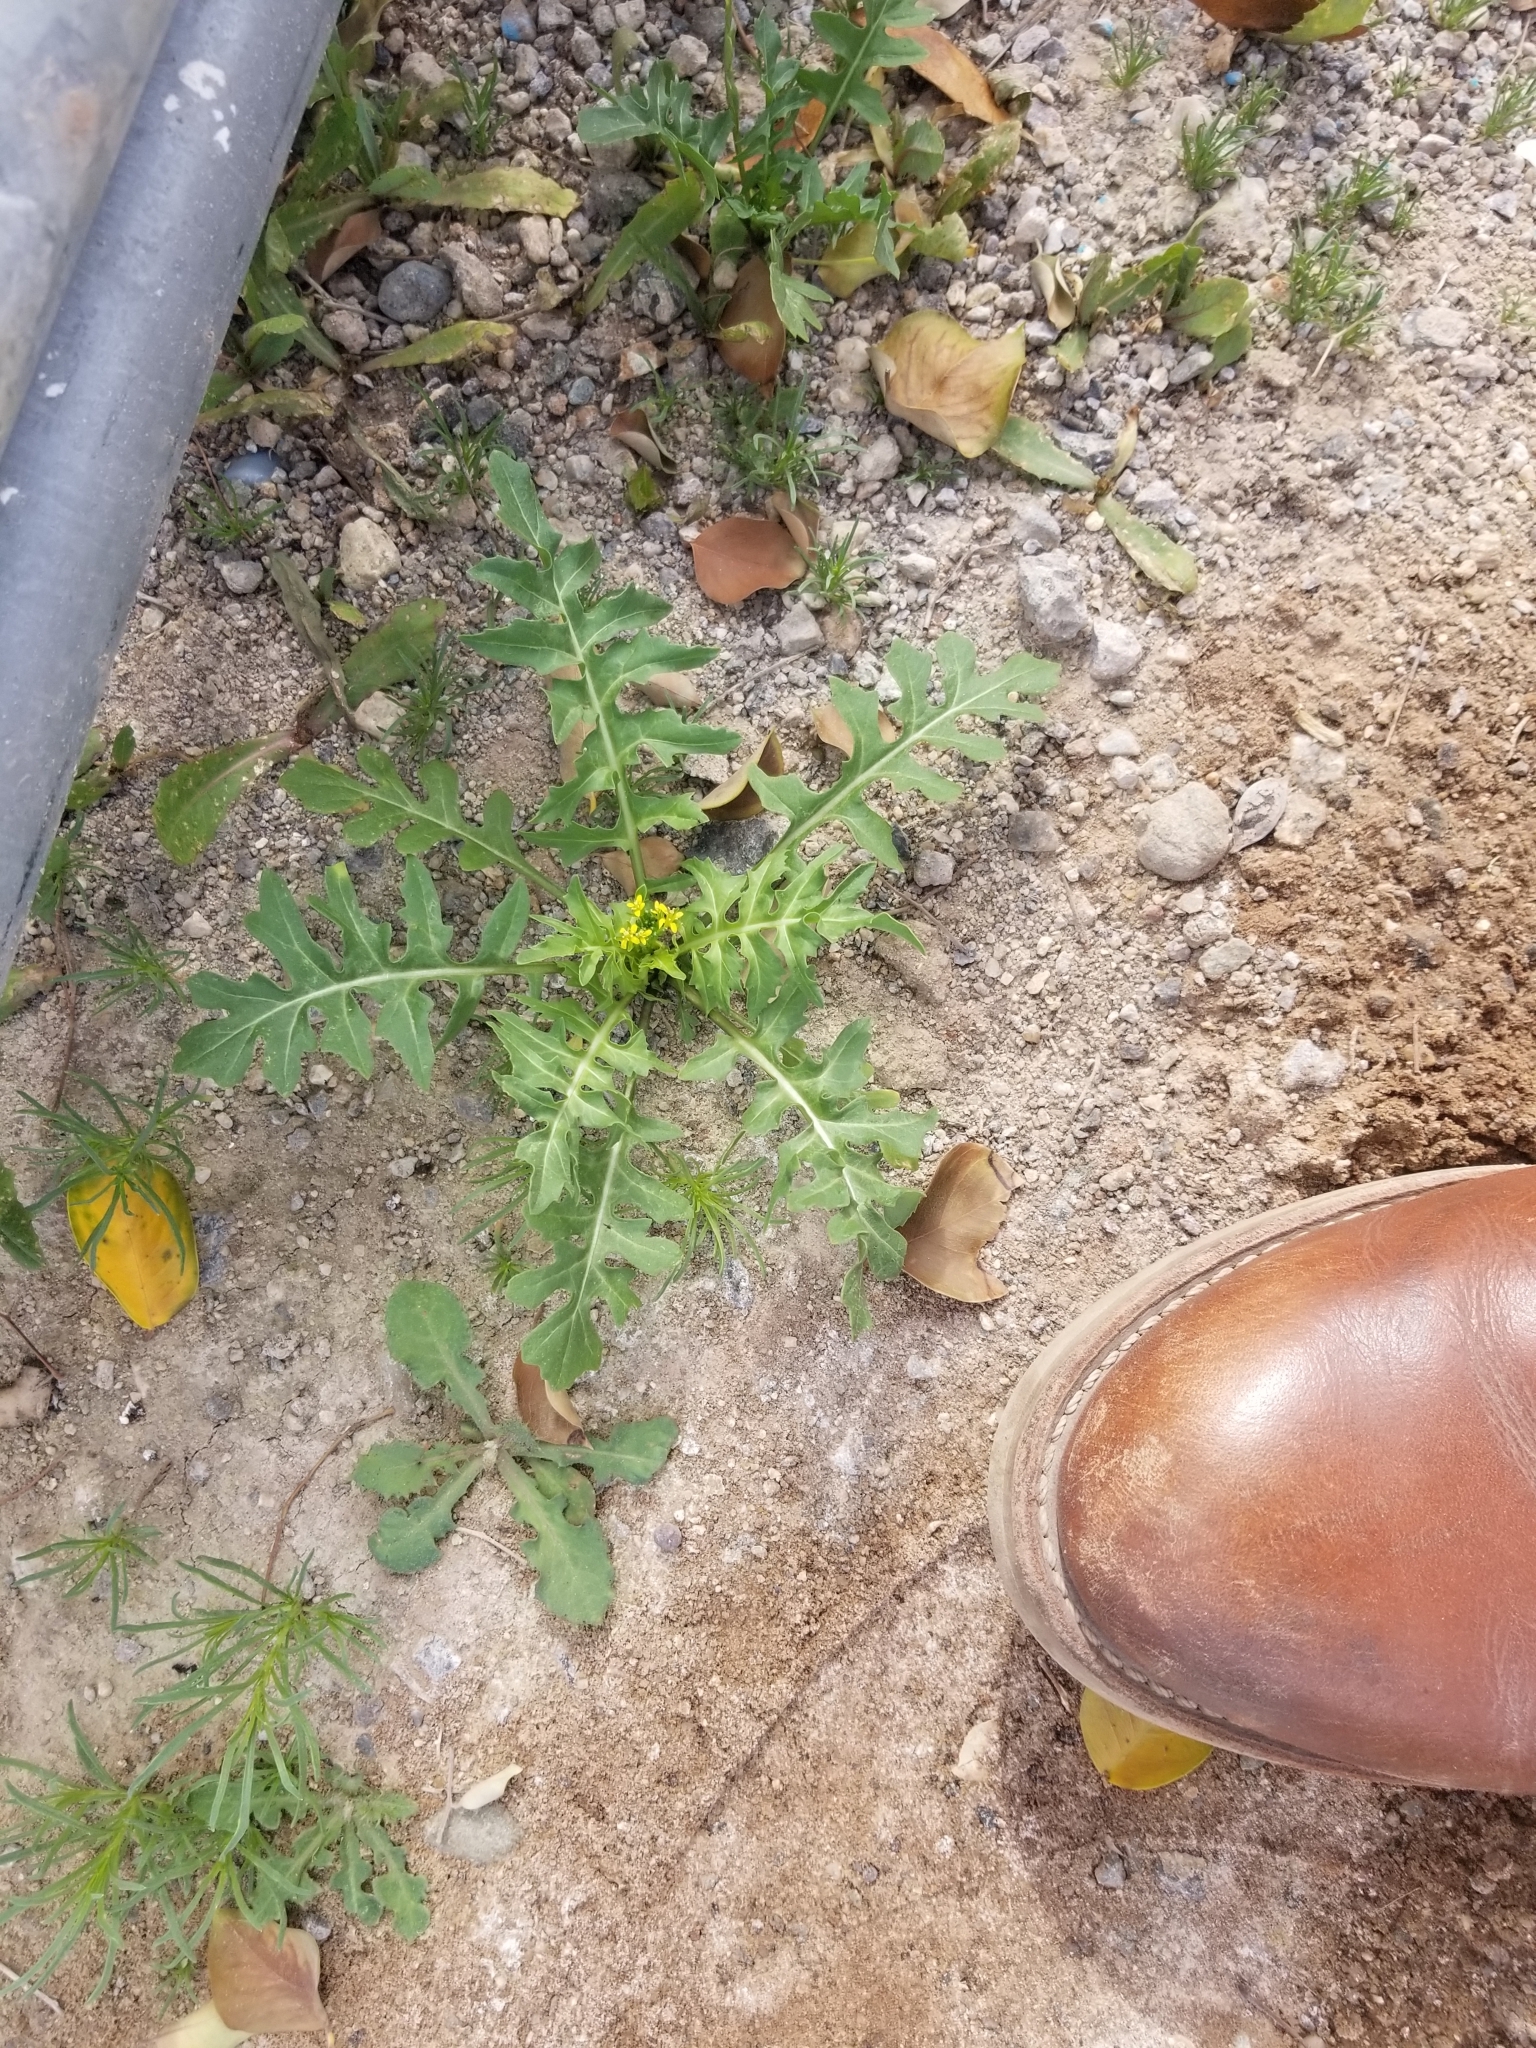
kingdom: Plantae
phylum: Tracheophyta
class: Magnoliopsida
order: Brassicales
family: Brassicaceae
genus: Sisymbrium
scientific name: Sisymbrium irio
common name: London rocket
